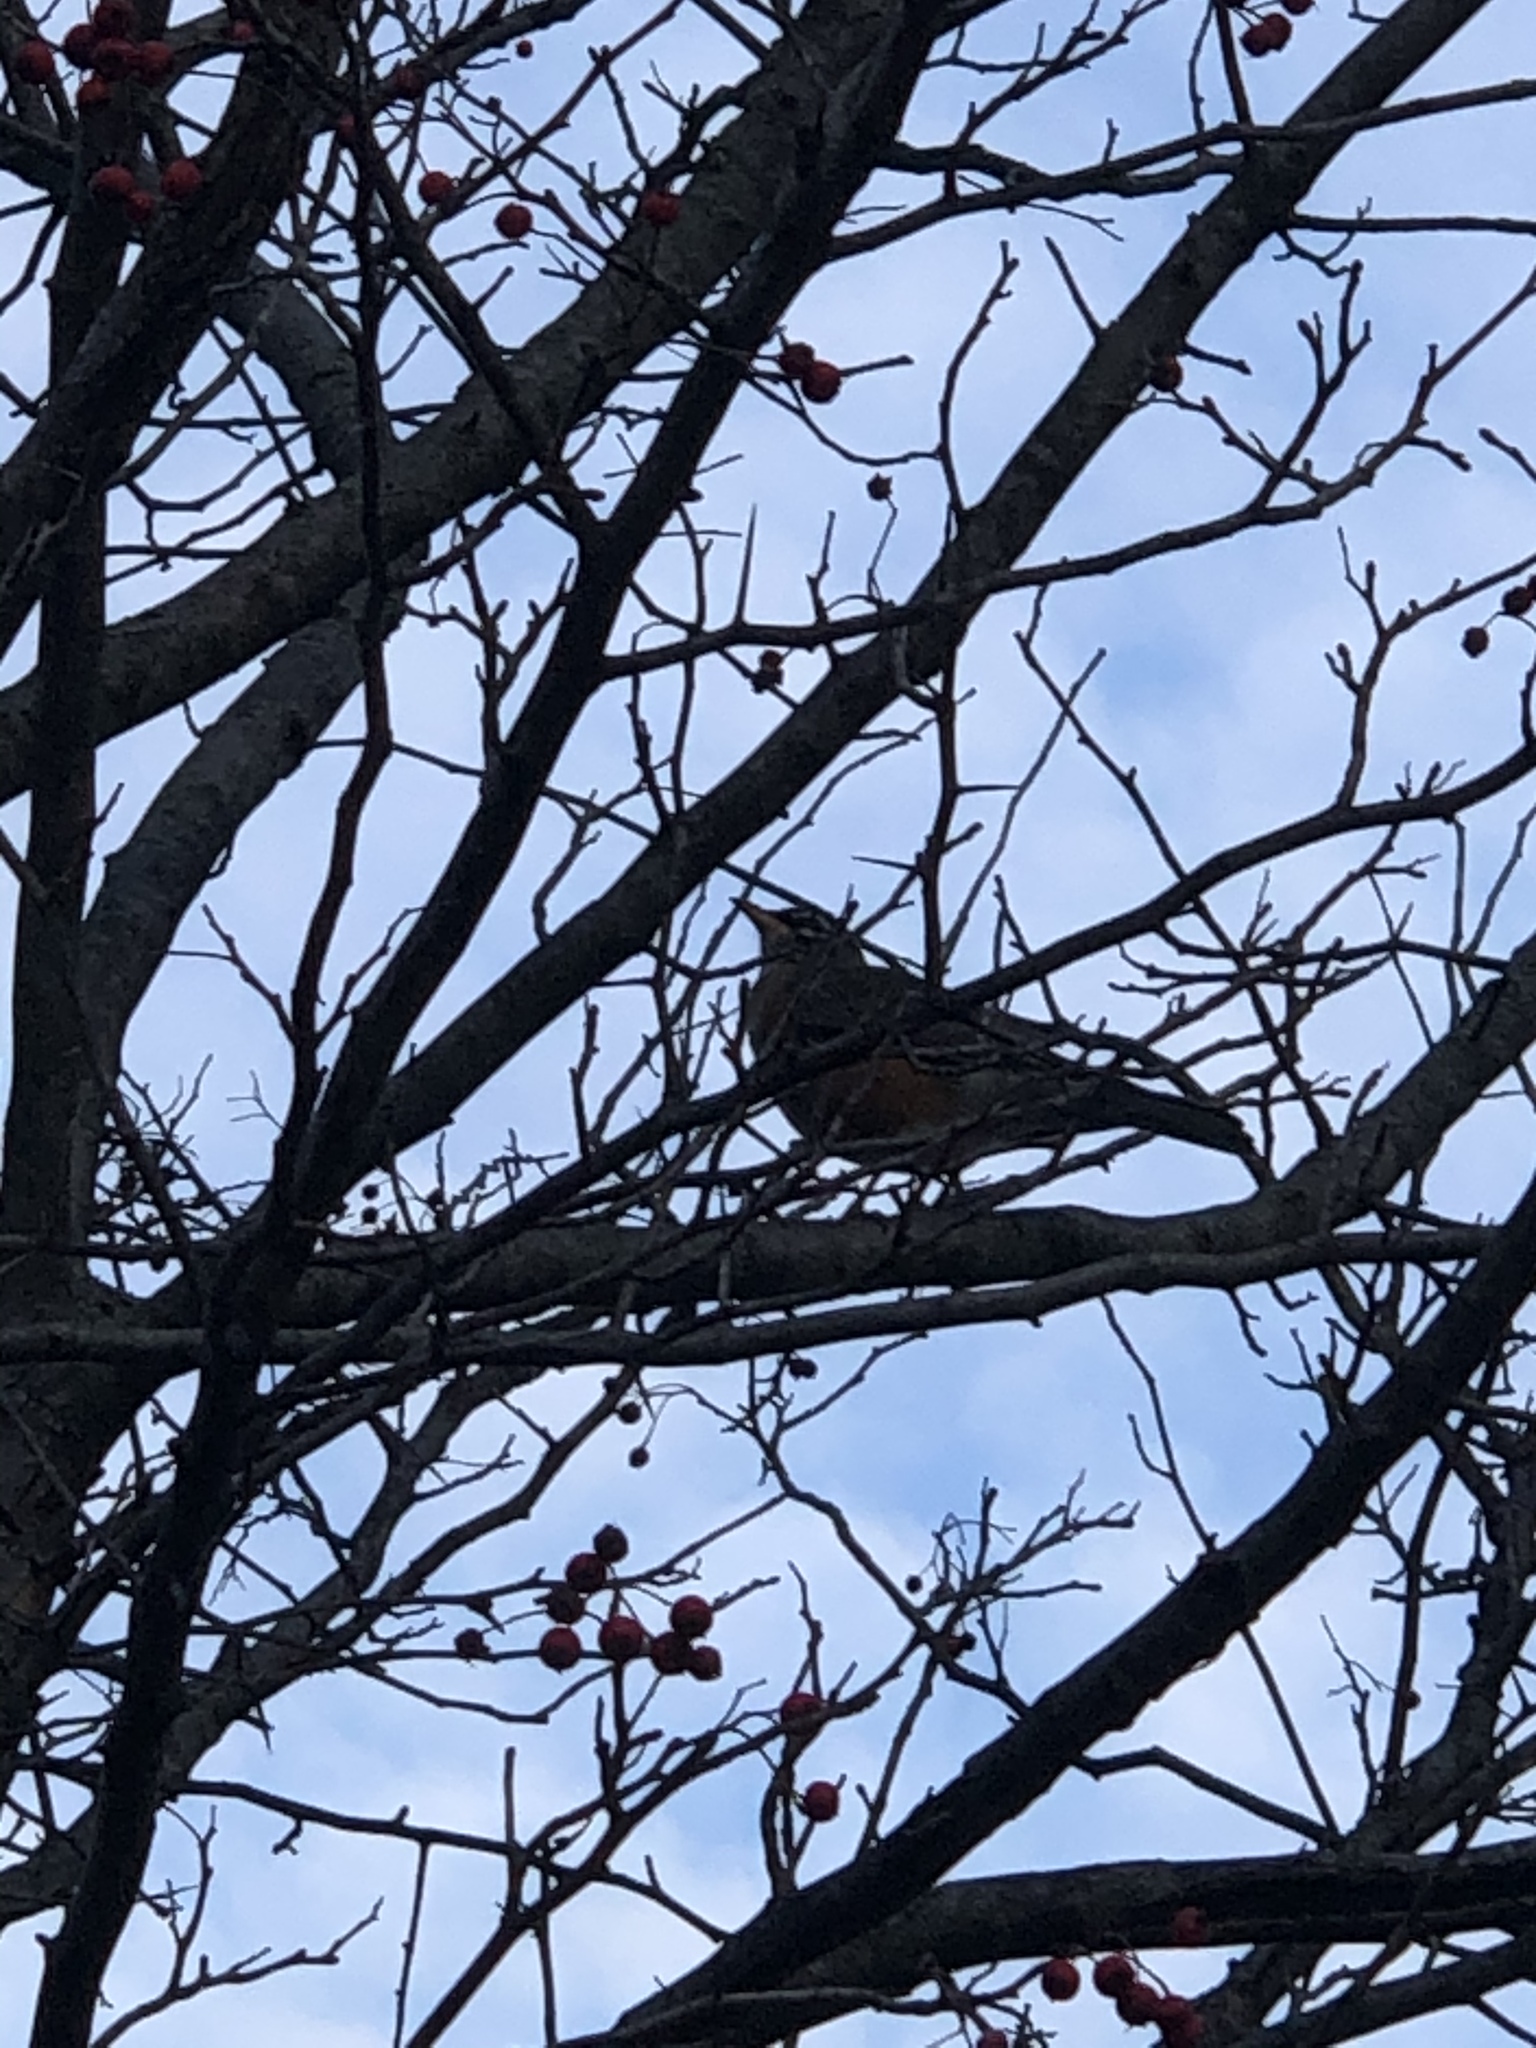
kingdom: Animalia
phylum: Chordata
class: Aves
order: Passeriformes
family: Turdidae
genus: Turdus
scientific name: Turdus migratorius
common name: American robin
